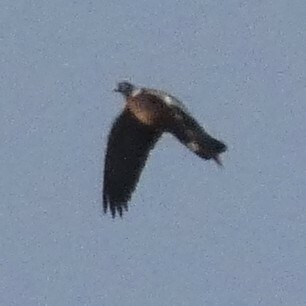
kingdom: Animalia
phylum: Chordata
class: Aves
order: Columbiformes
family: Columbidae
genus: Columba
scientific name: Columba palumbus
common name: Common wood pigeon
